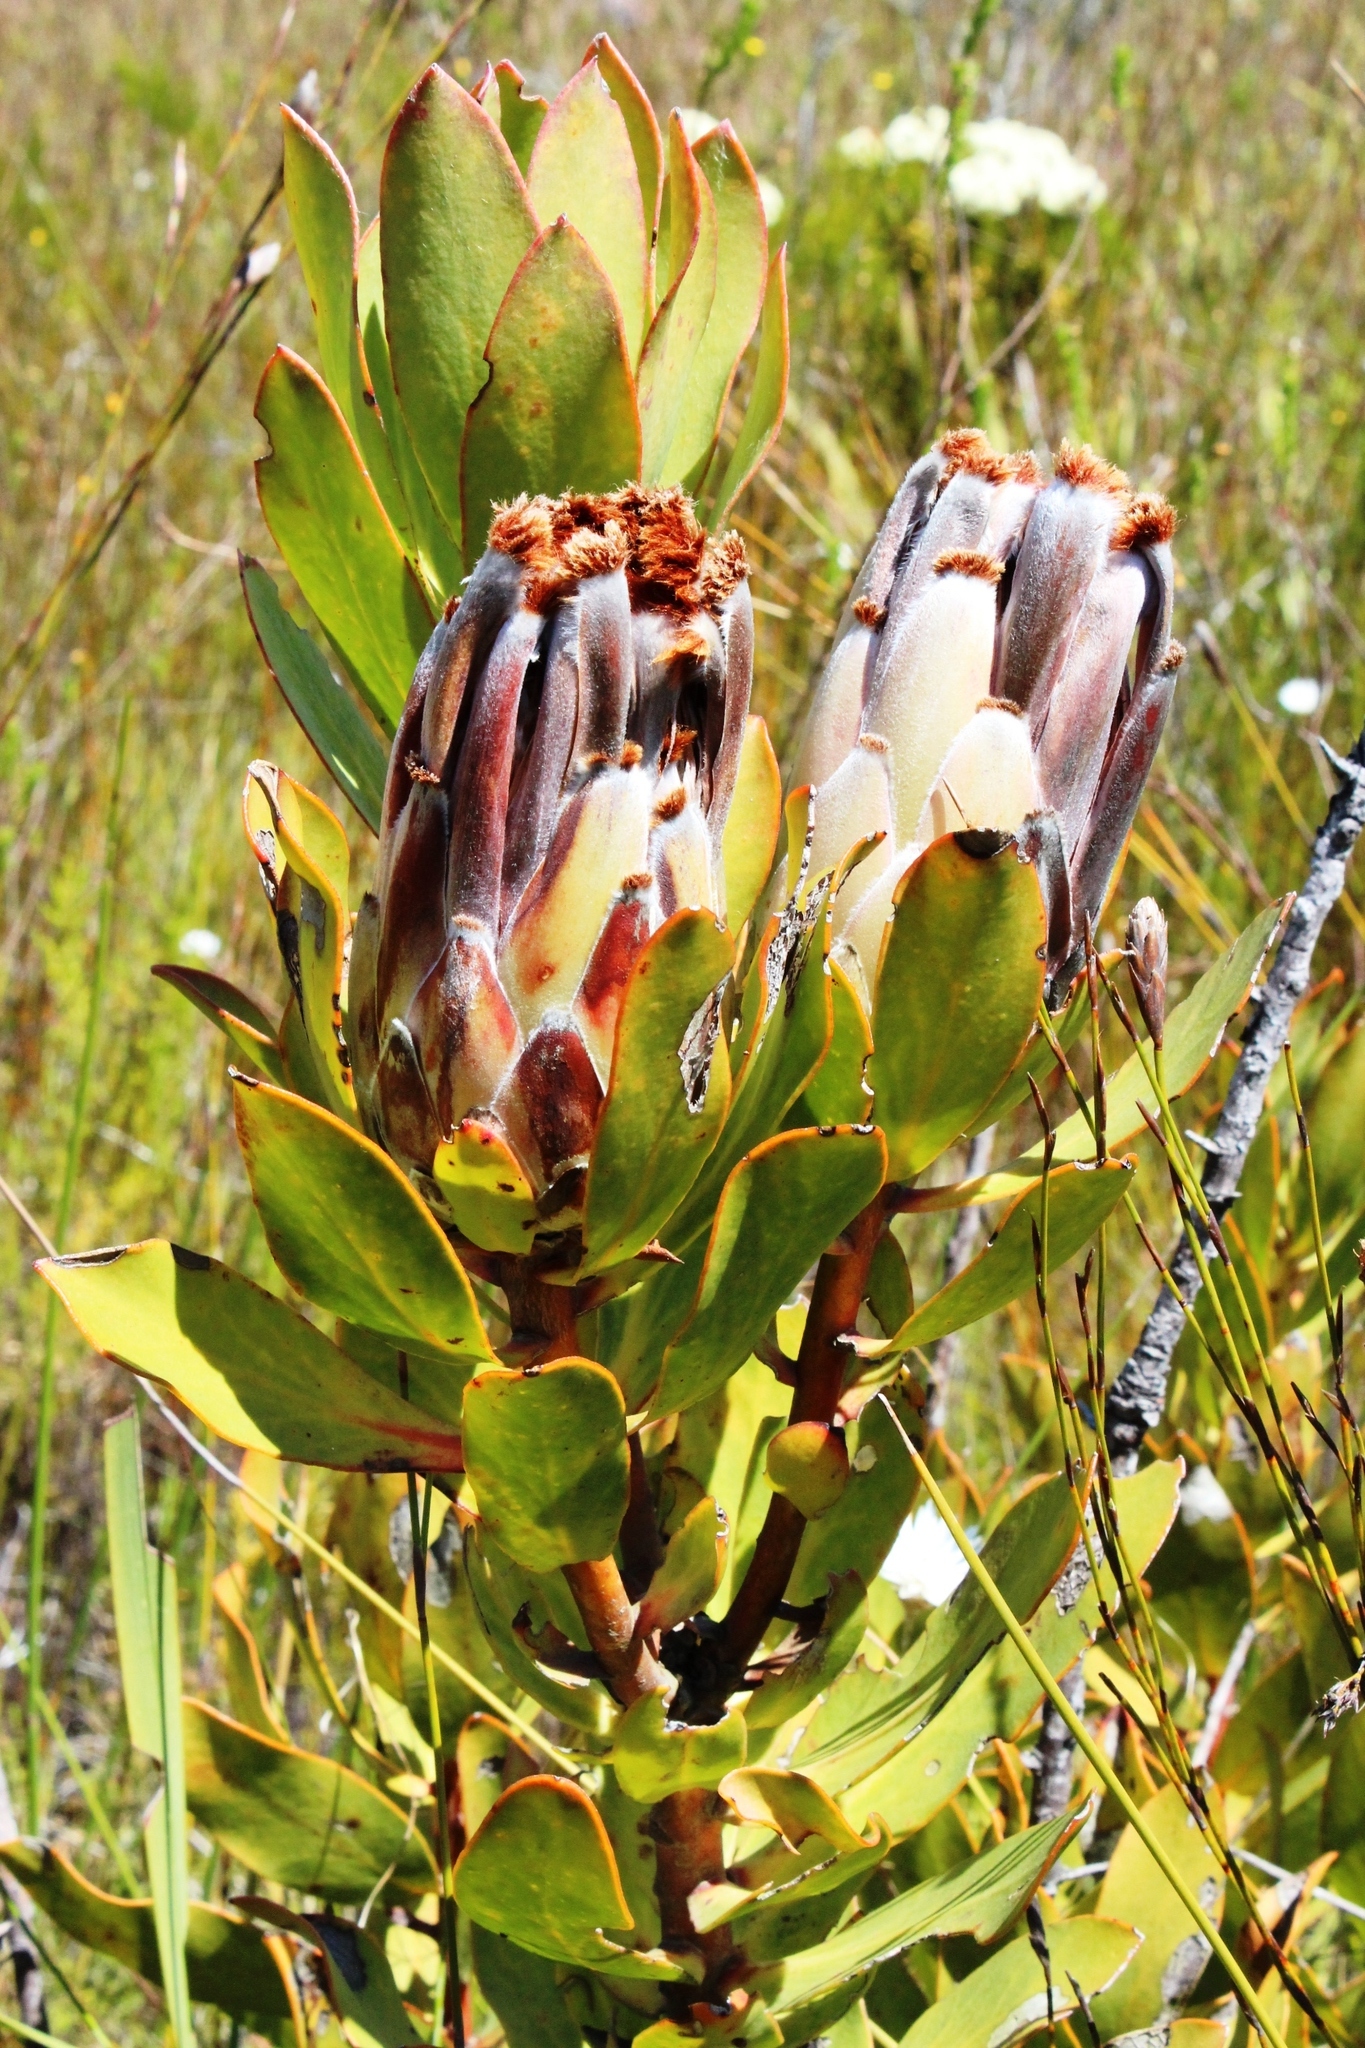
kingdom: Plantae
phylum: Tracheophyta
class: Magnoliopsida
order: Proteales
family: Proteaceae
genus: Protea
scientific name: Protea speciosa
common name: Brown-beard sugarbush
